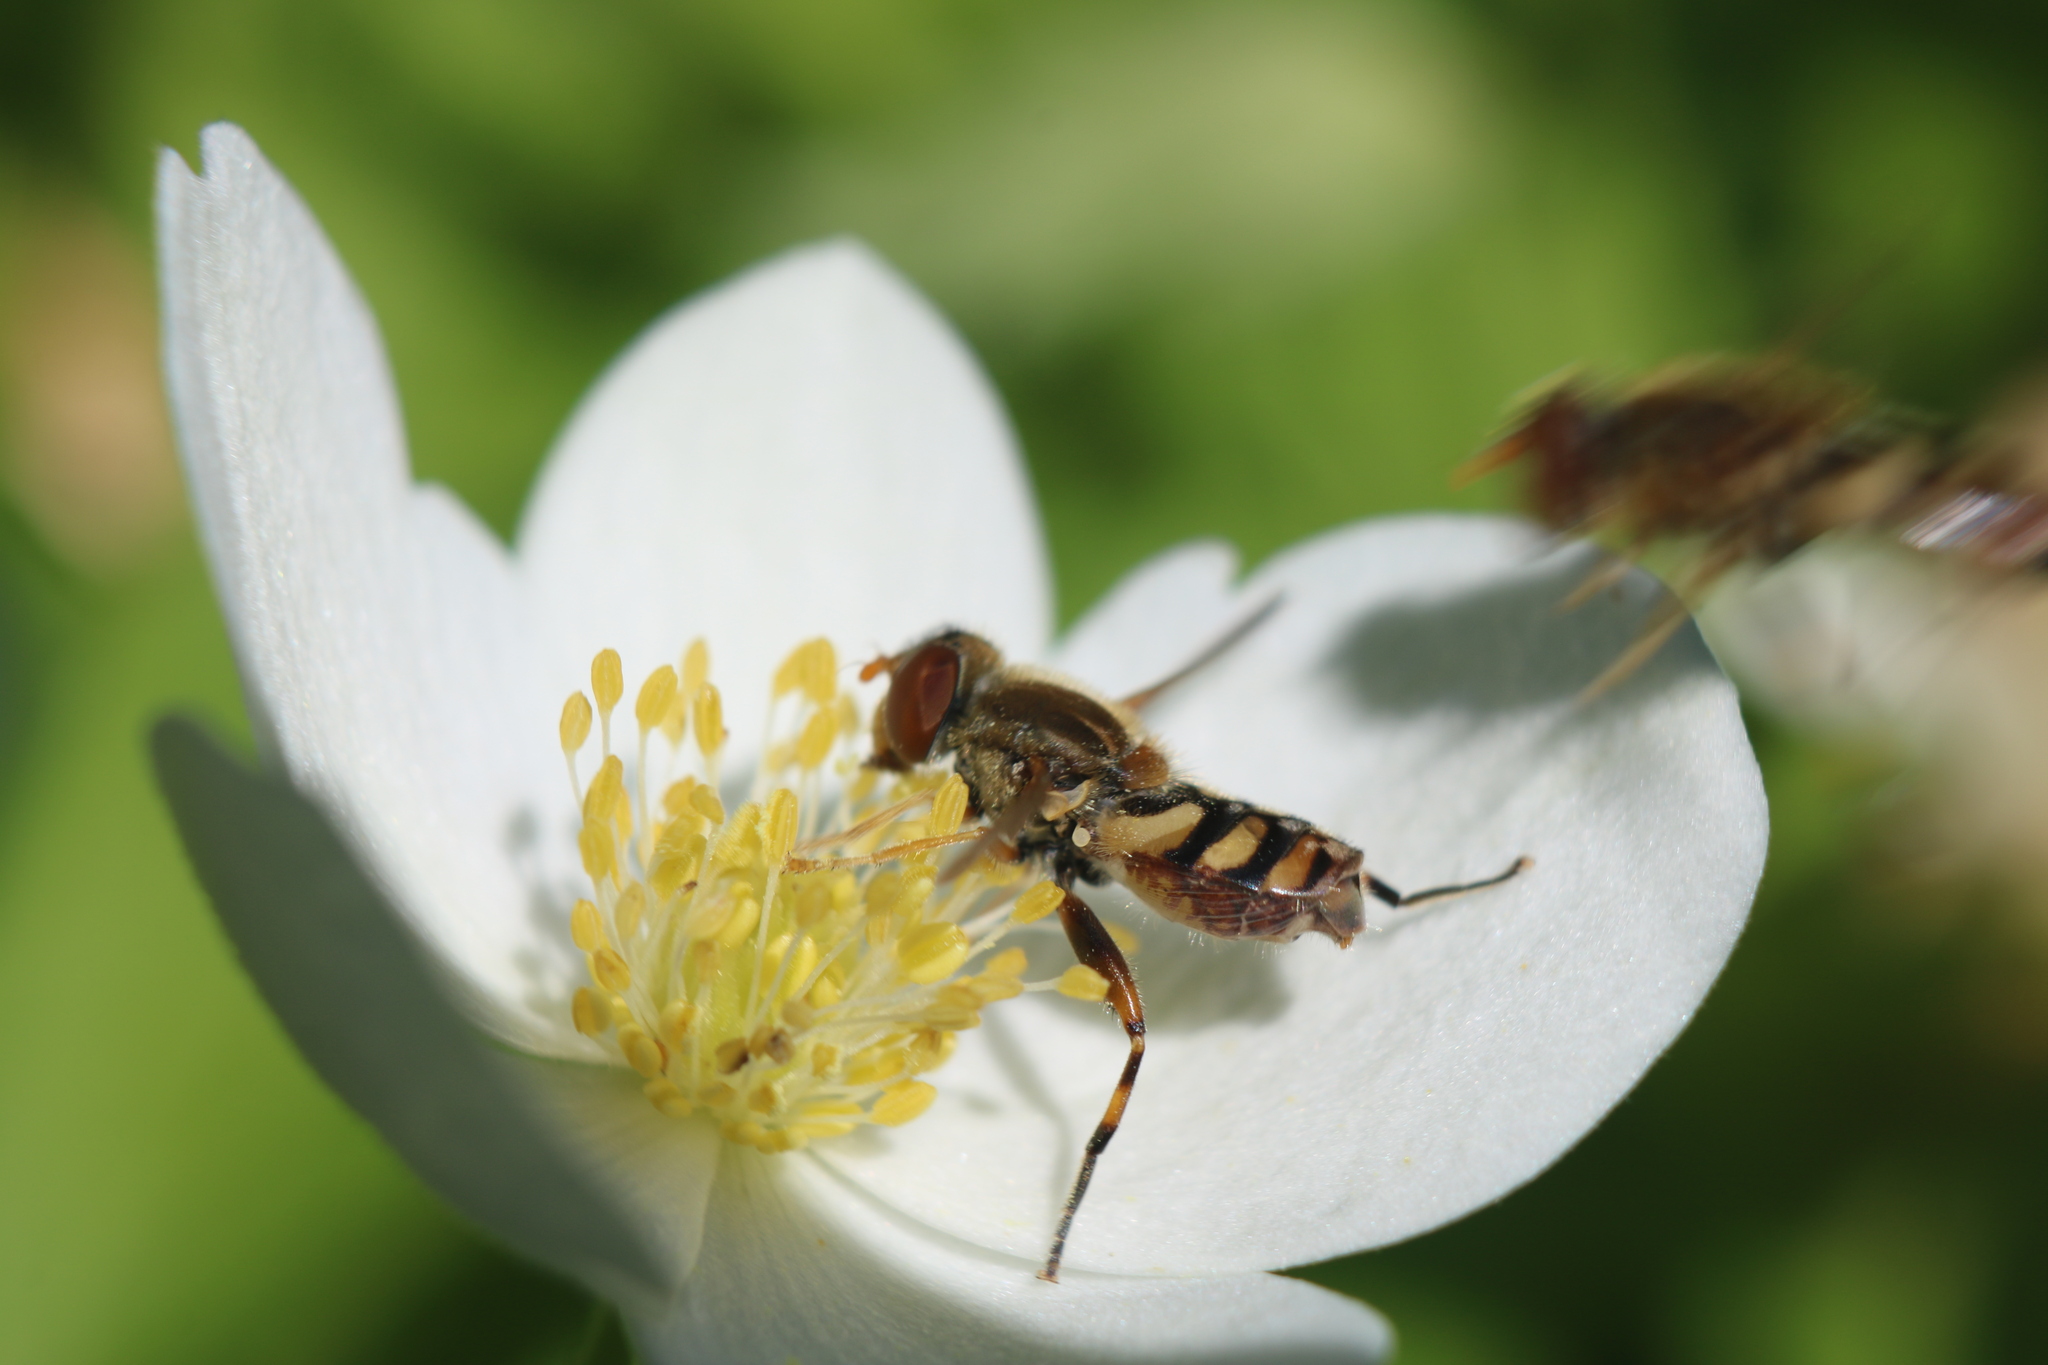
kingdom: Animalia
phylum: Arthropoda
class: Insecta
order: Diptera
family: Syrphidae
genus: Parhelophilus
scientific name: Parhelophilus obsoletus
